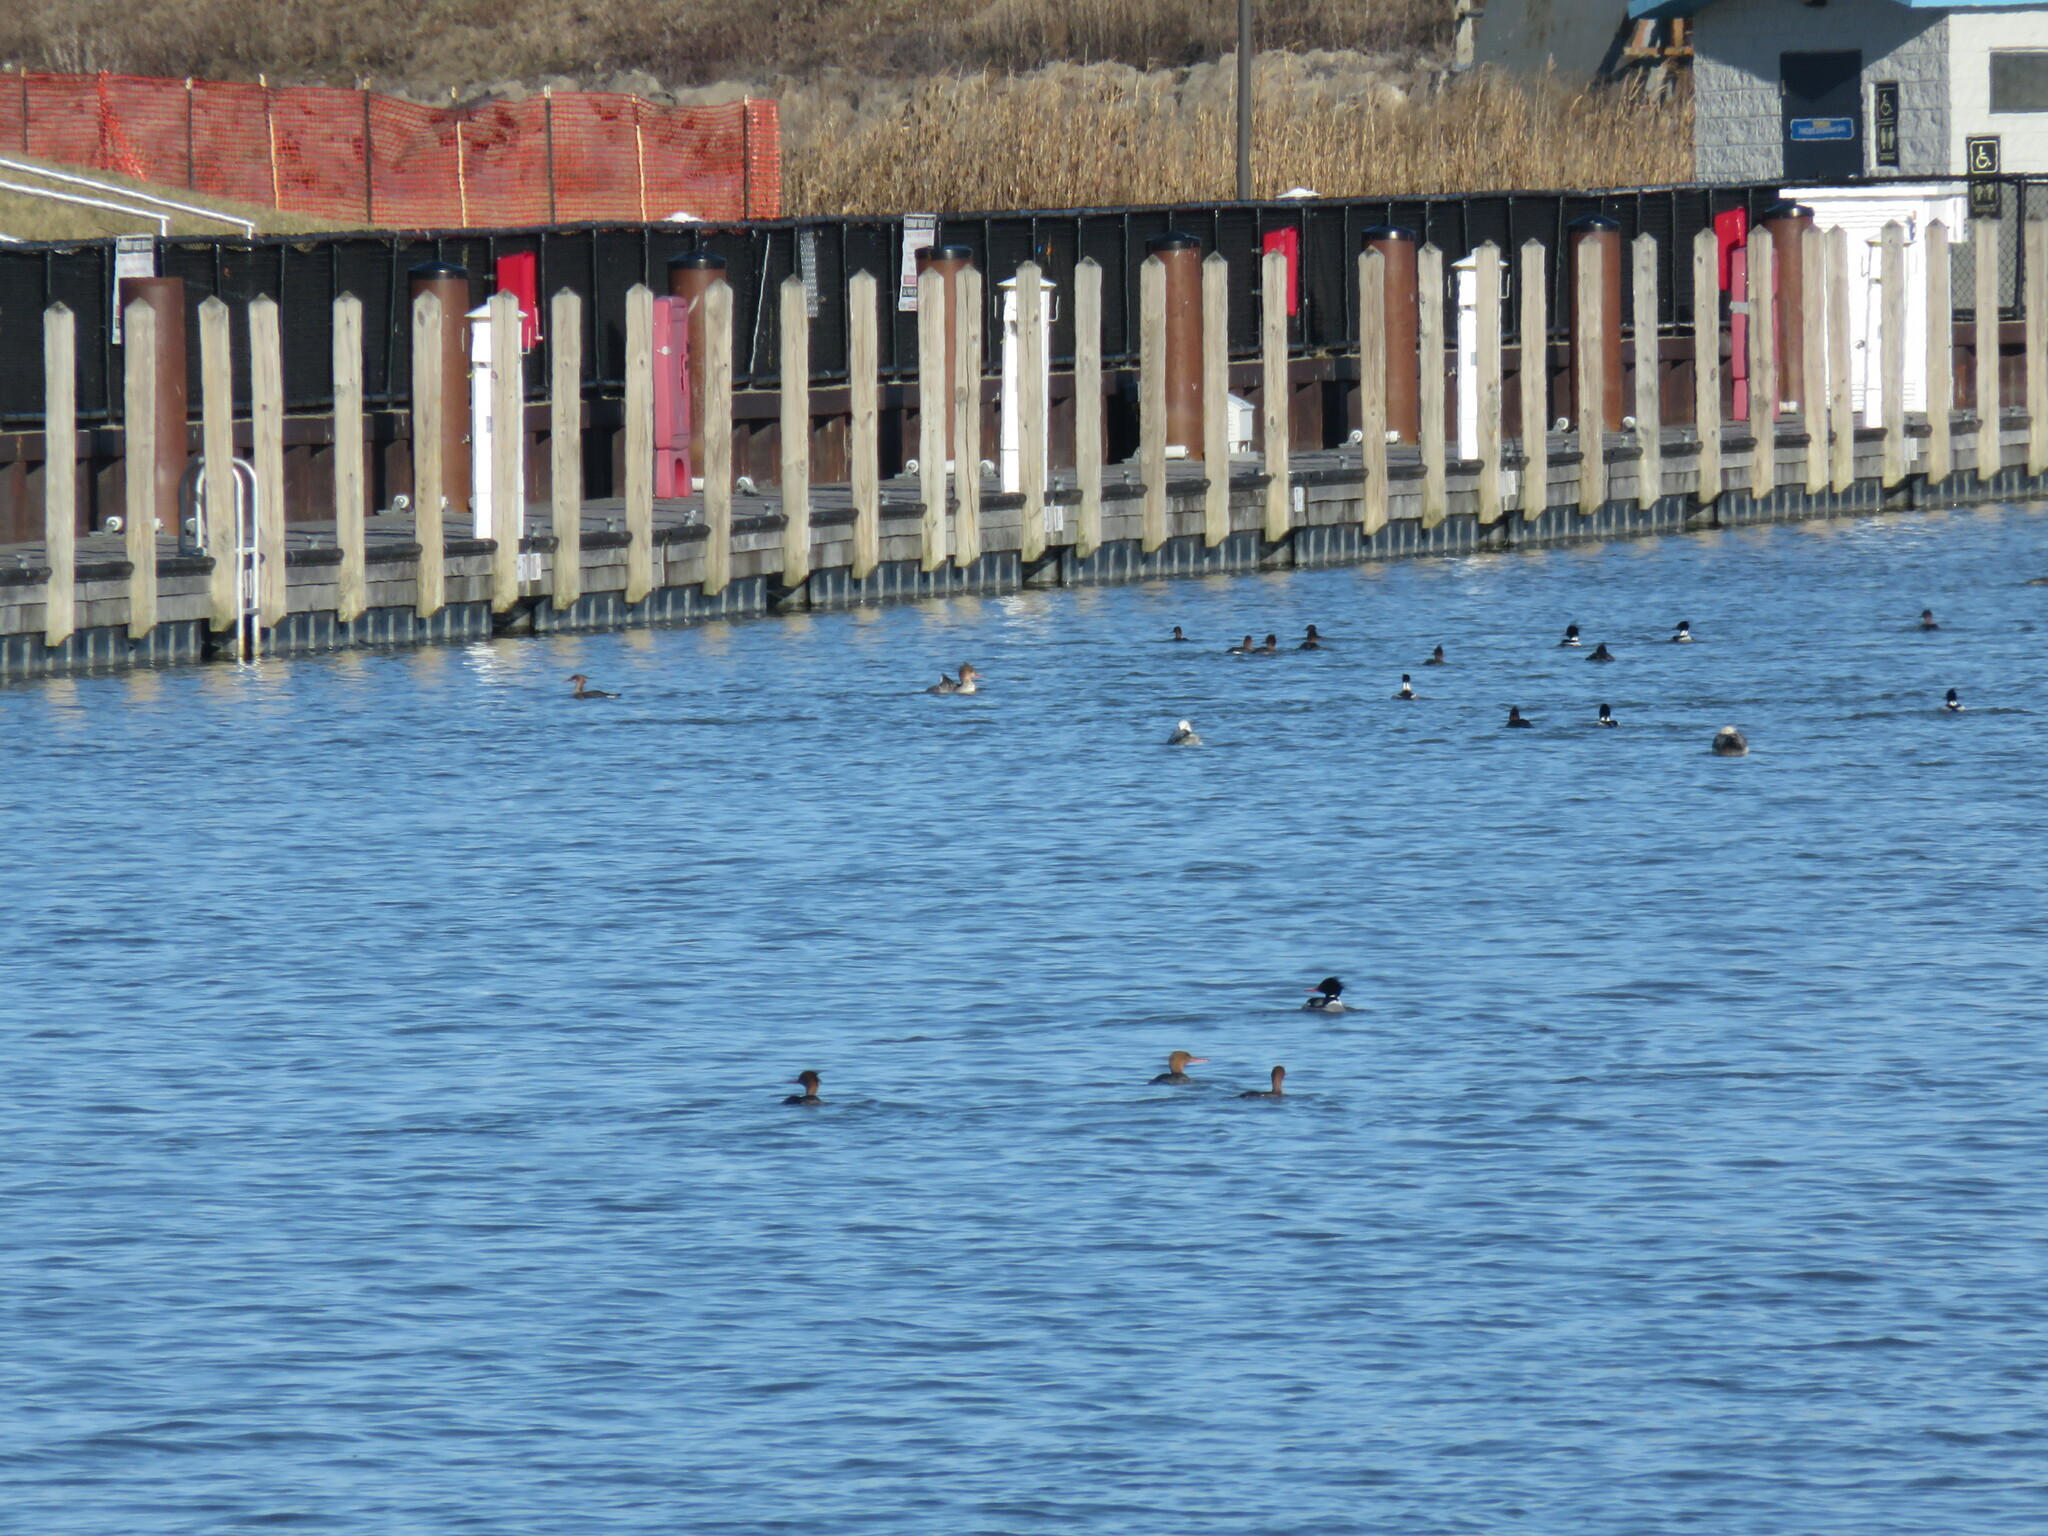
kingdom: Animalia
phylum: Chordata
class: Aves
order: Anseriformes
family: Anatidae
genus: Mergus
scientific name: Mergus serrator
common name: Red-breasted merganser
